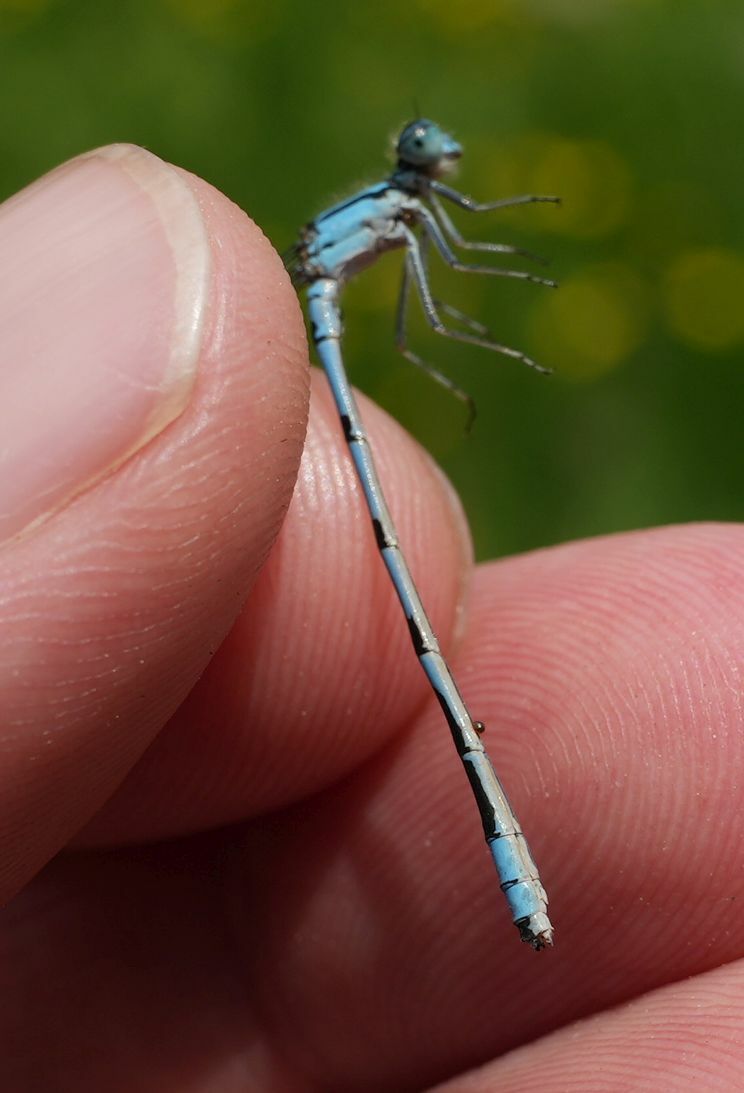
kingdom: Animalia
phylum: Arthropoda
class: Insecta
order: Odonata
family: Coenagrionidae
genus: Enallagma
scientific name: Enallagma ebrium
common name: Marsh bluet
